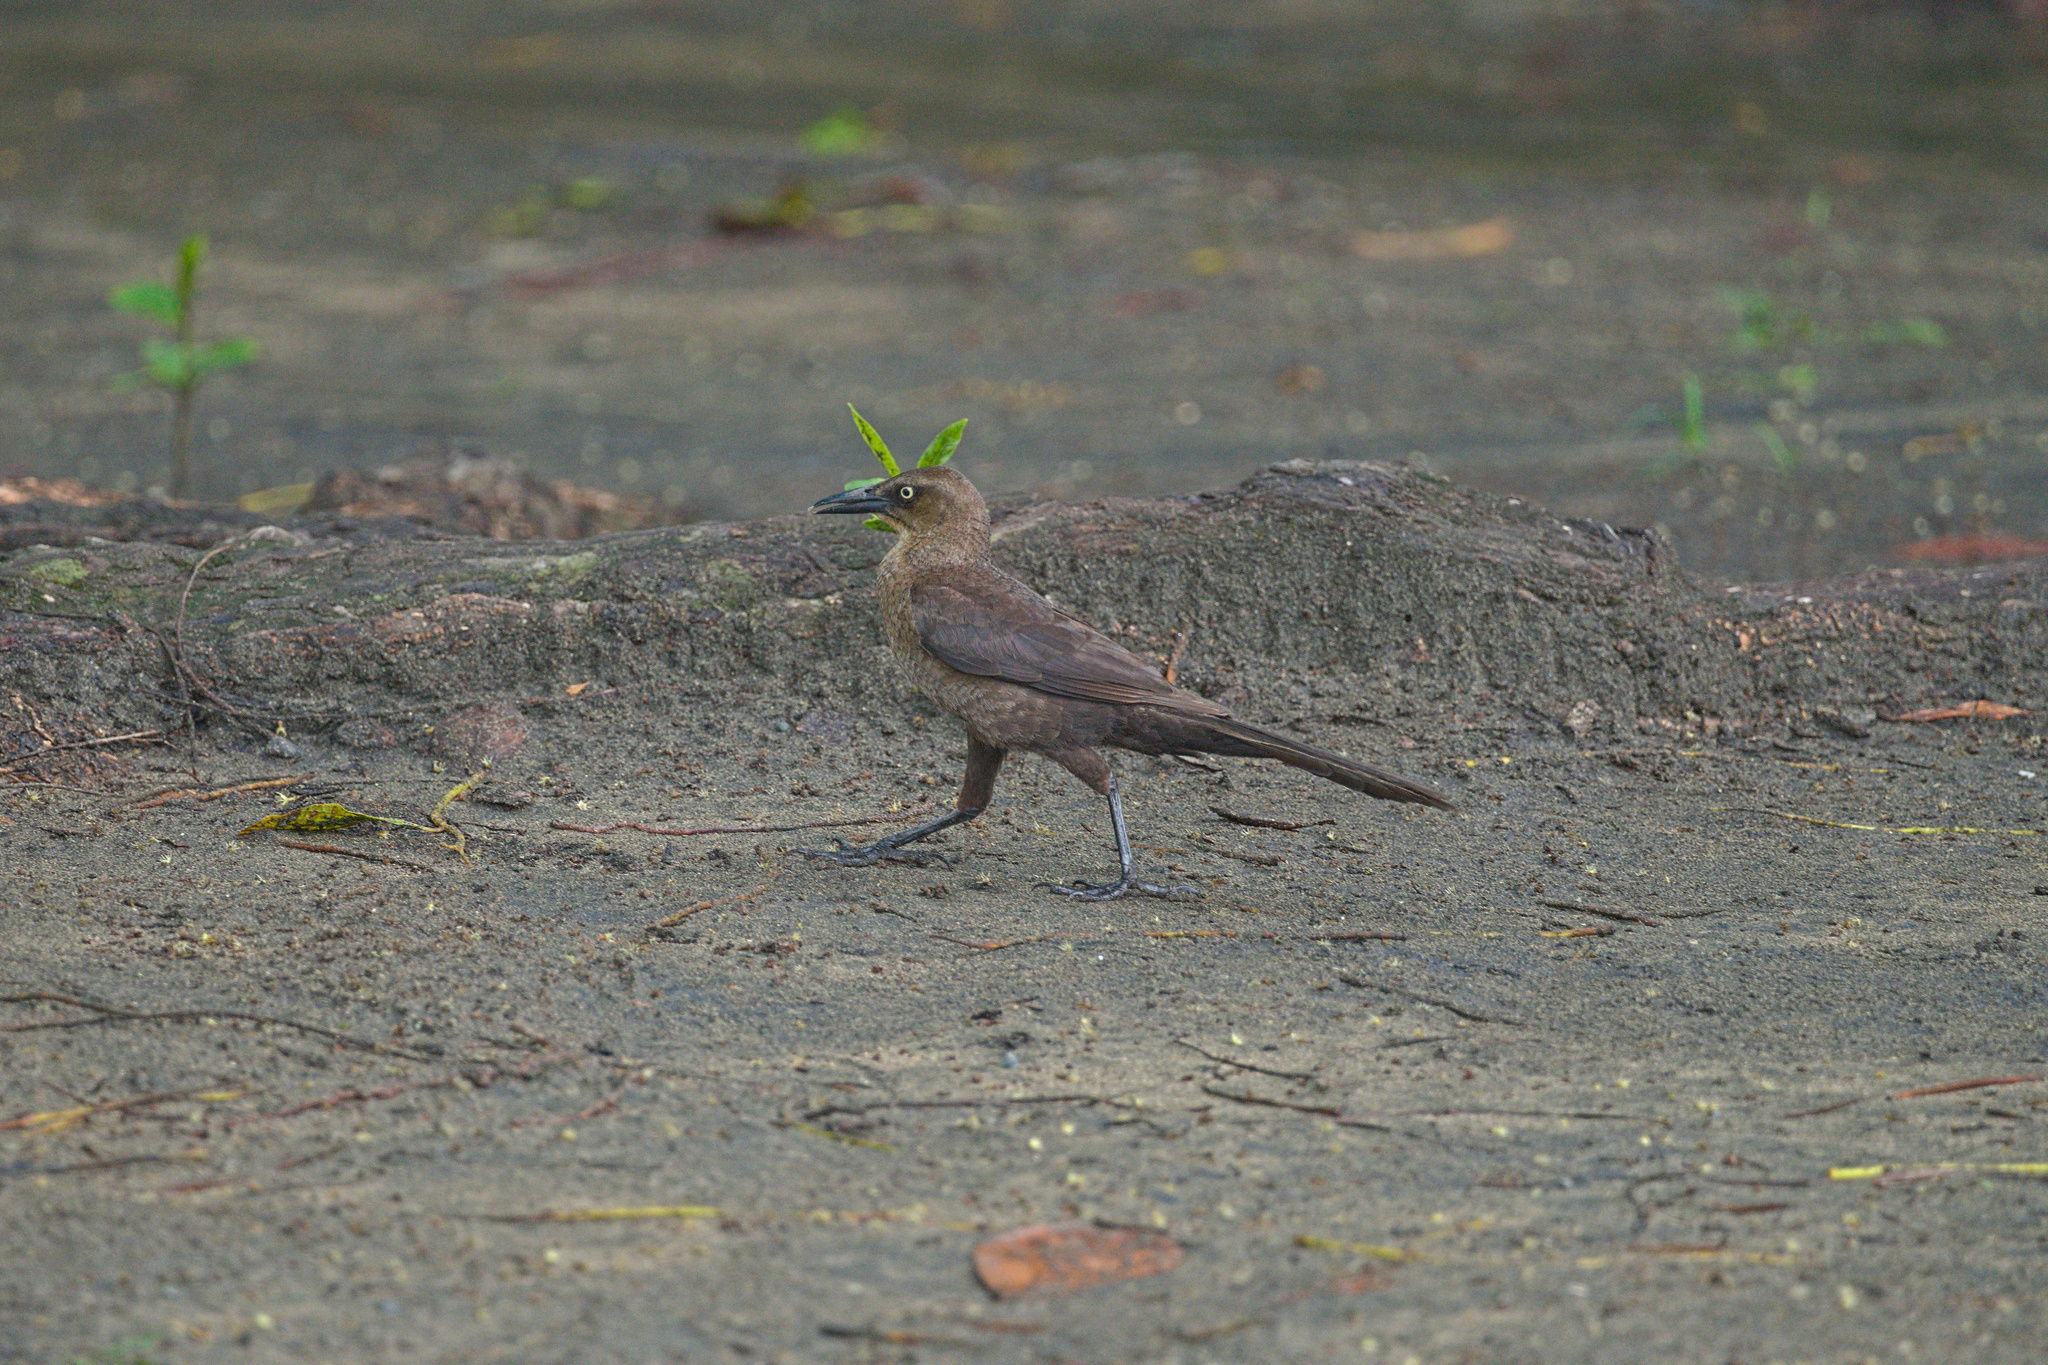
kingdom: Animalia
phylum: Chordata
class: Aves
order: Passeriformes
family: Icteridae
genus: Quiscalus
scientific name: Quiscalus mexicanus
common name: Great-tailed grackle
